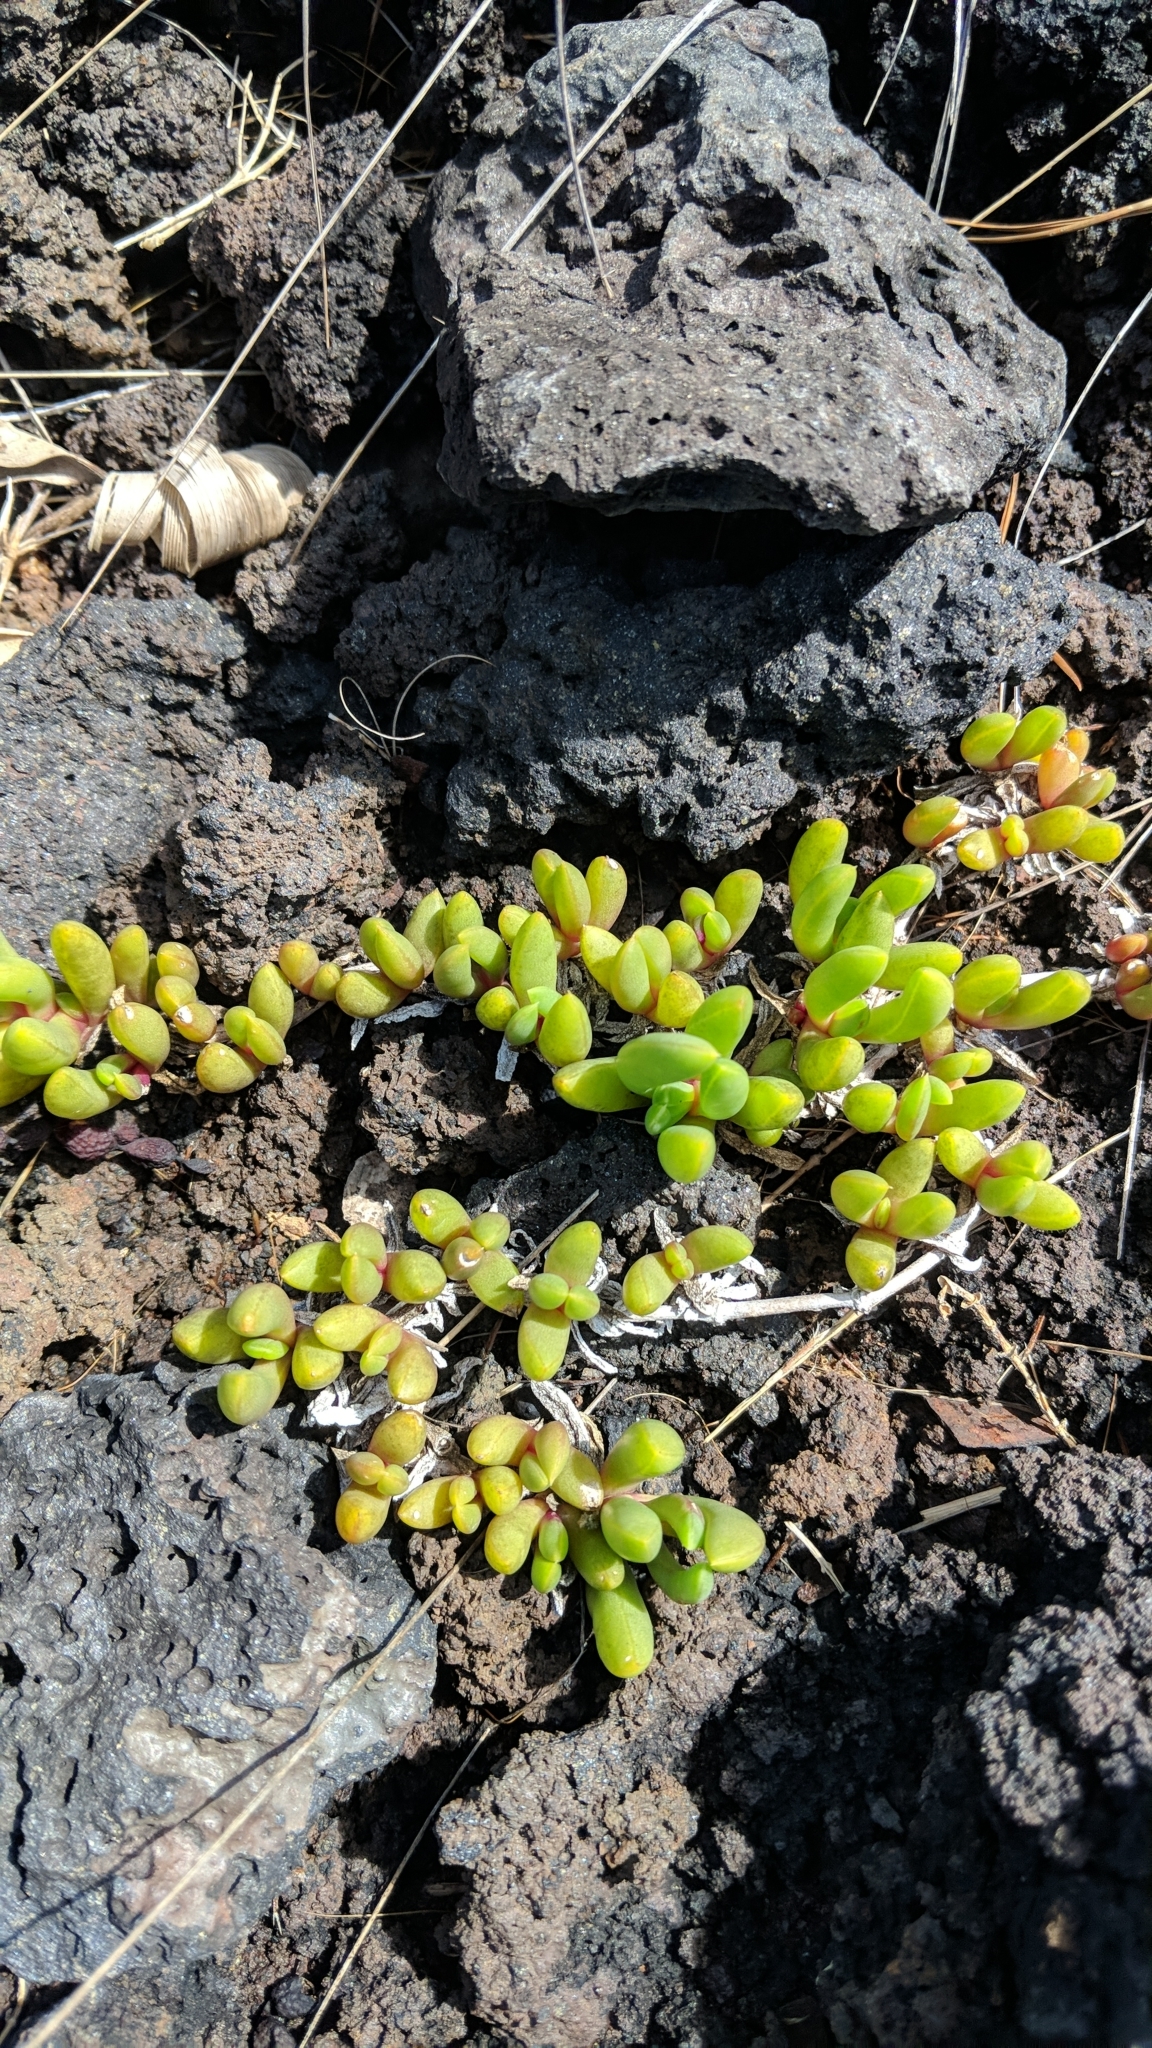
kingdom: Plantae
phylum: Tracheophyta
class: Magnoliopsida
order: Caryophyllales
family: Aizoaceae
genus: Disphyma
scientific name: Disphyma australe
